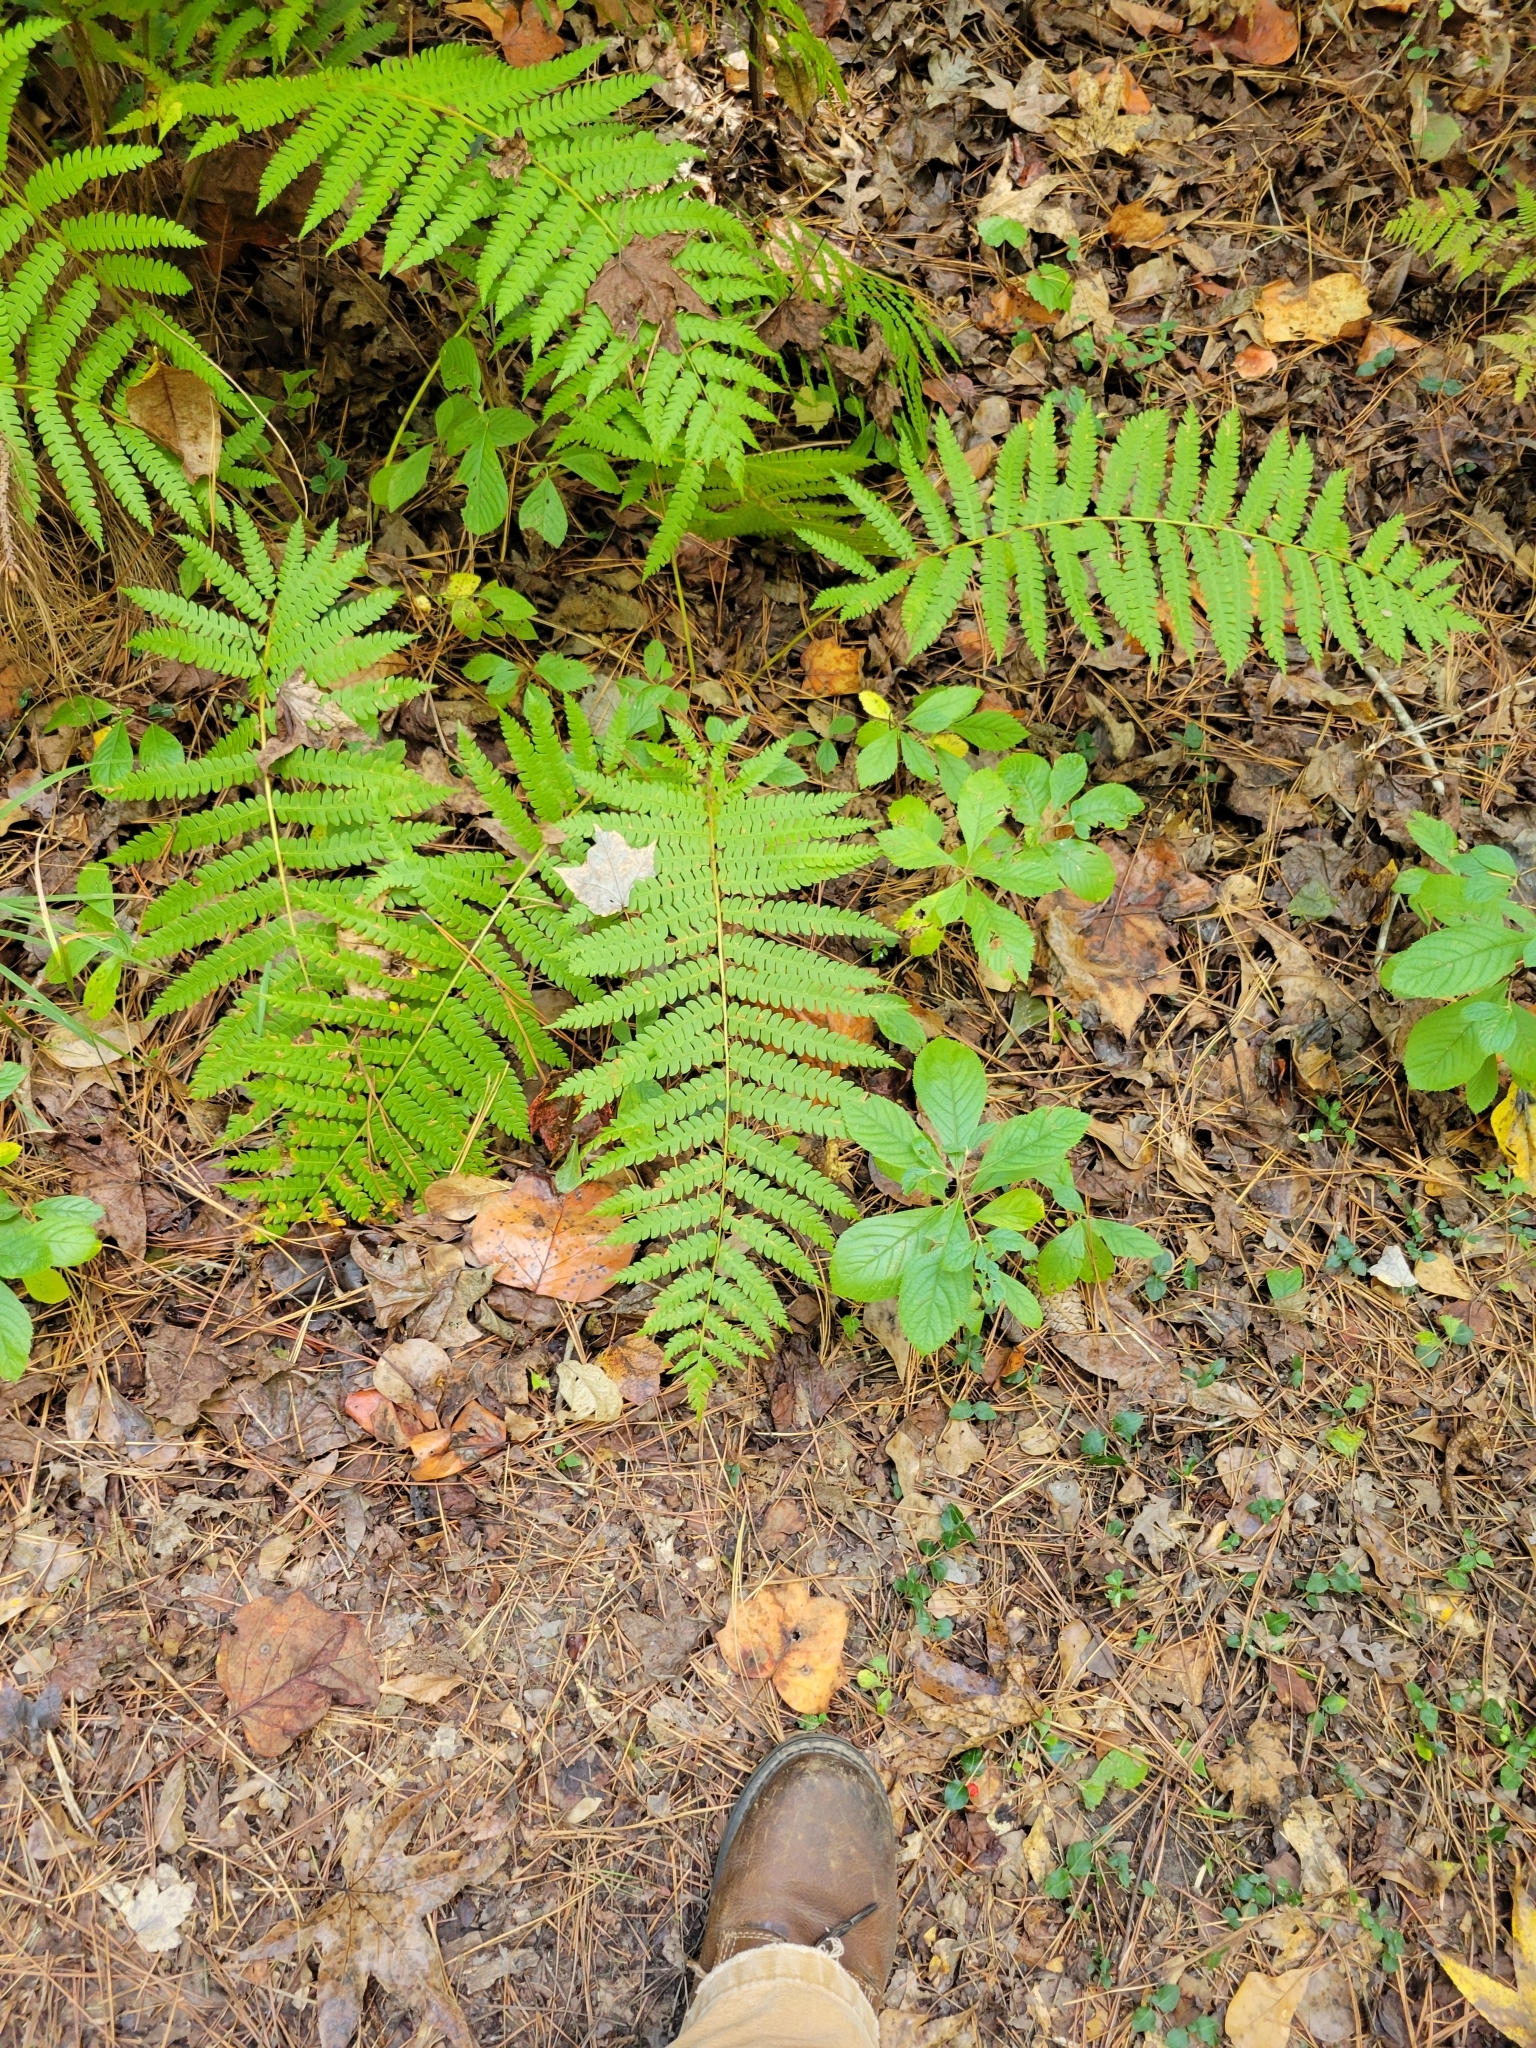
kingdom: Plantae
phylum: Tracheophyta
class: Polypodiopsida
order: Osmundales
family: Osmundaceae
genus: Osmundastrum
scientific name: Osmundastrum cinnamomeum
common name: Cinnamon fern
